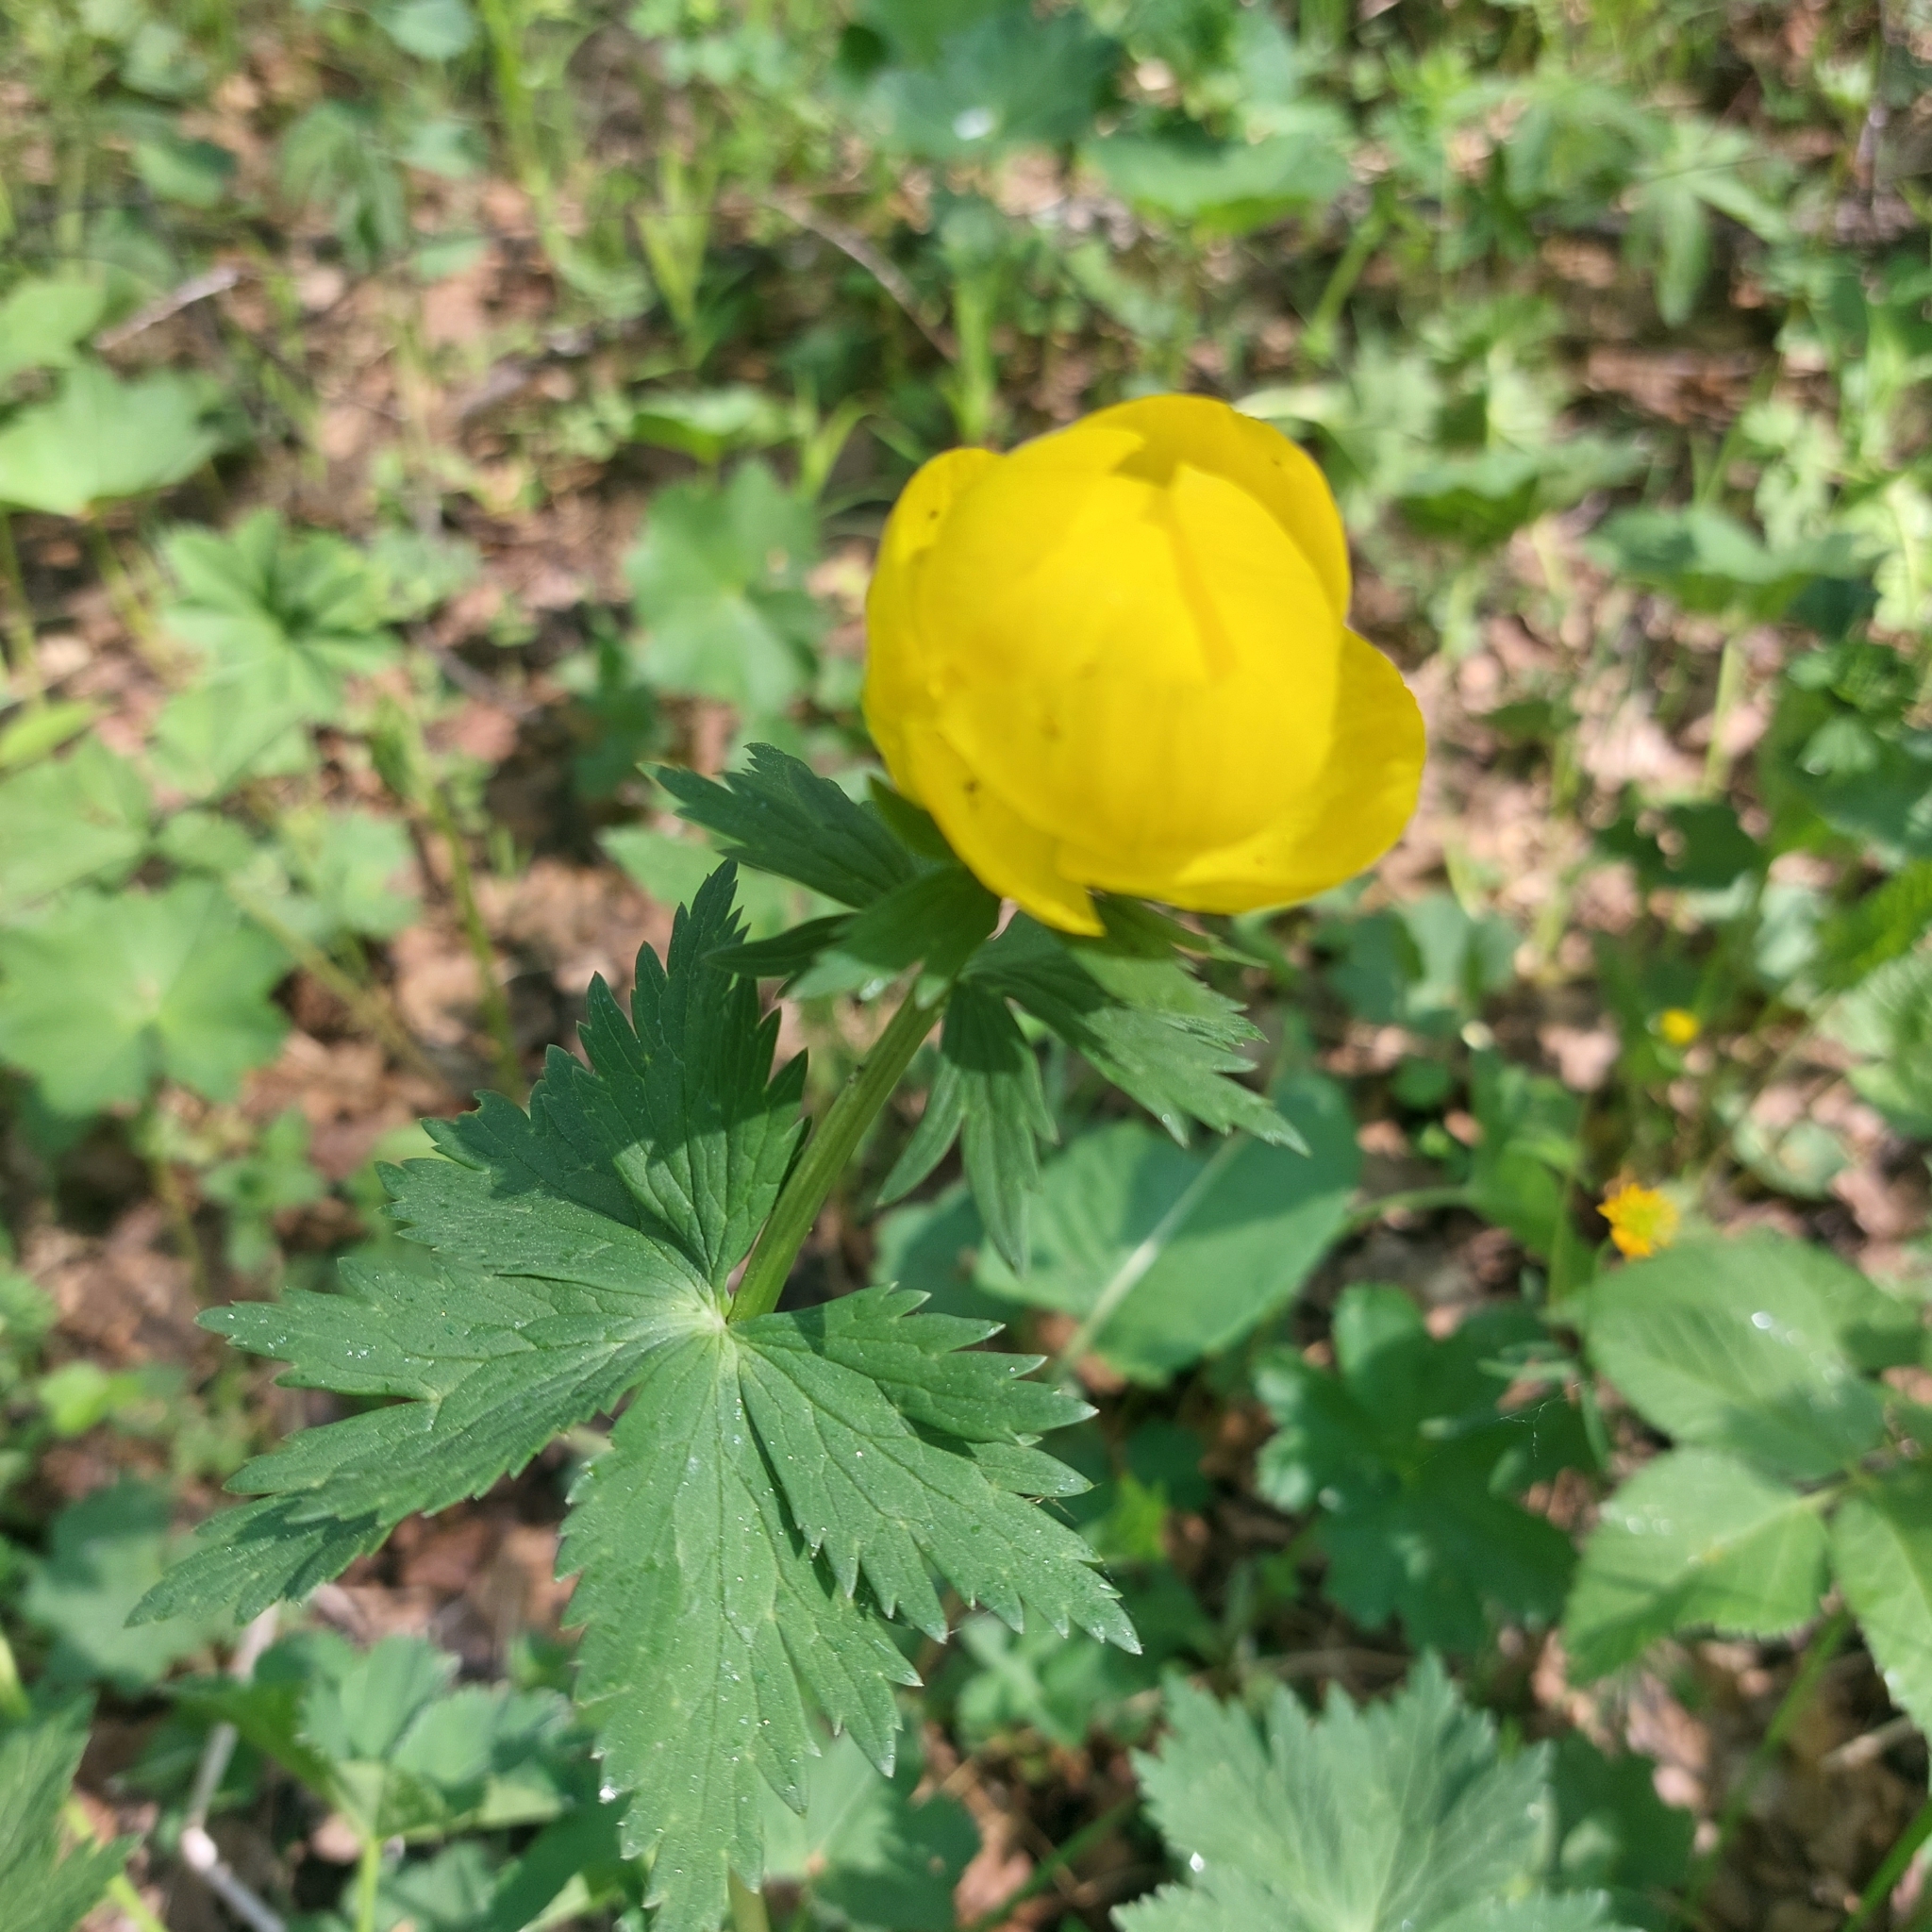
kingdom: Plantae
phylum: Tracheophyta
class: Magnoliopsida
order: Ranunculales
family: Ranunculaceae
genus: Trollius
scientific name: Trollius europaeus
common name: European globeflower
